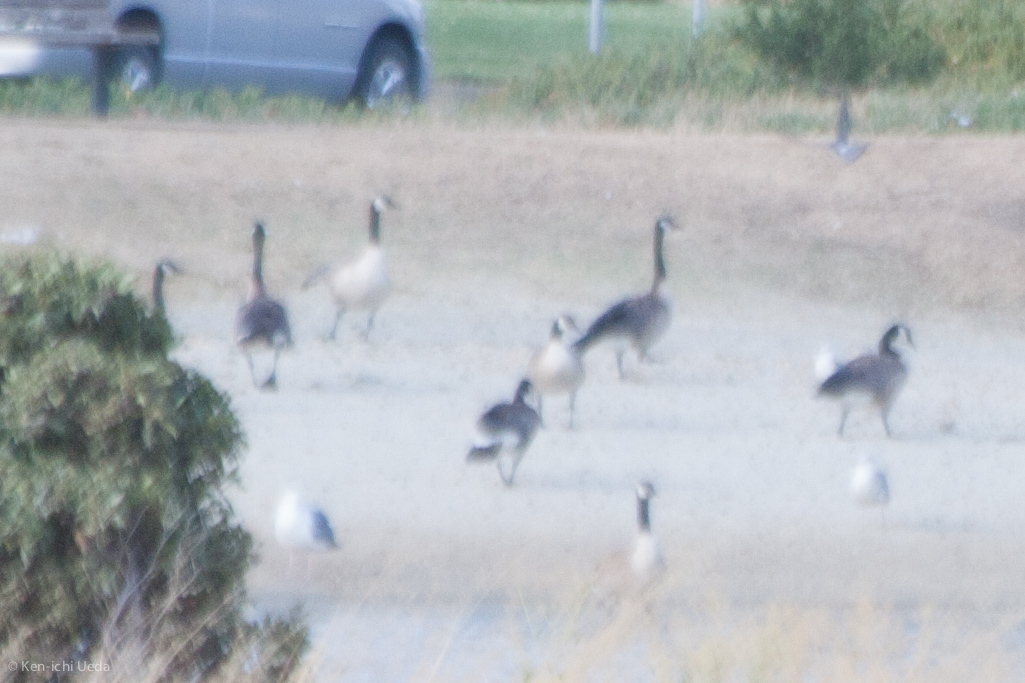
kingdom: Animalia
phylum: Chordata
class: Aves
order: Anseriformes
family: Anatidae
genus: Branta
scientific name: Branta canadensis
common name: Canada goose
